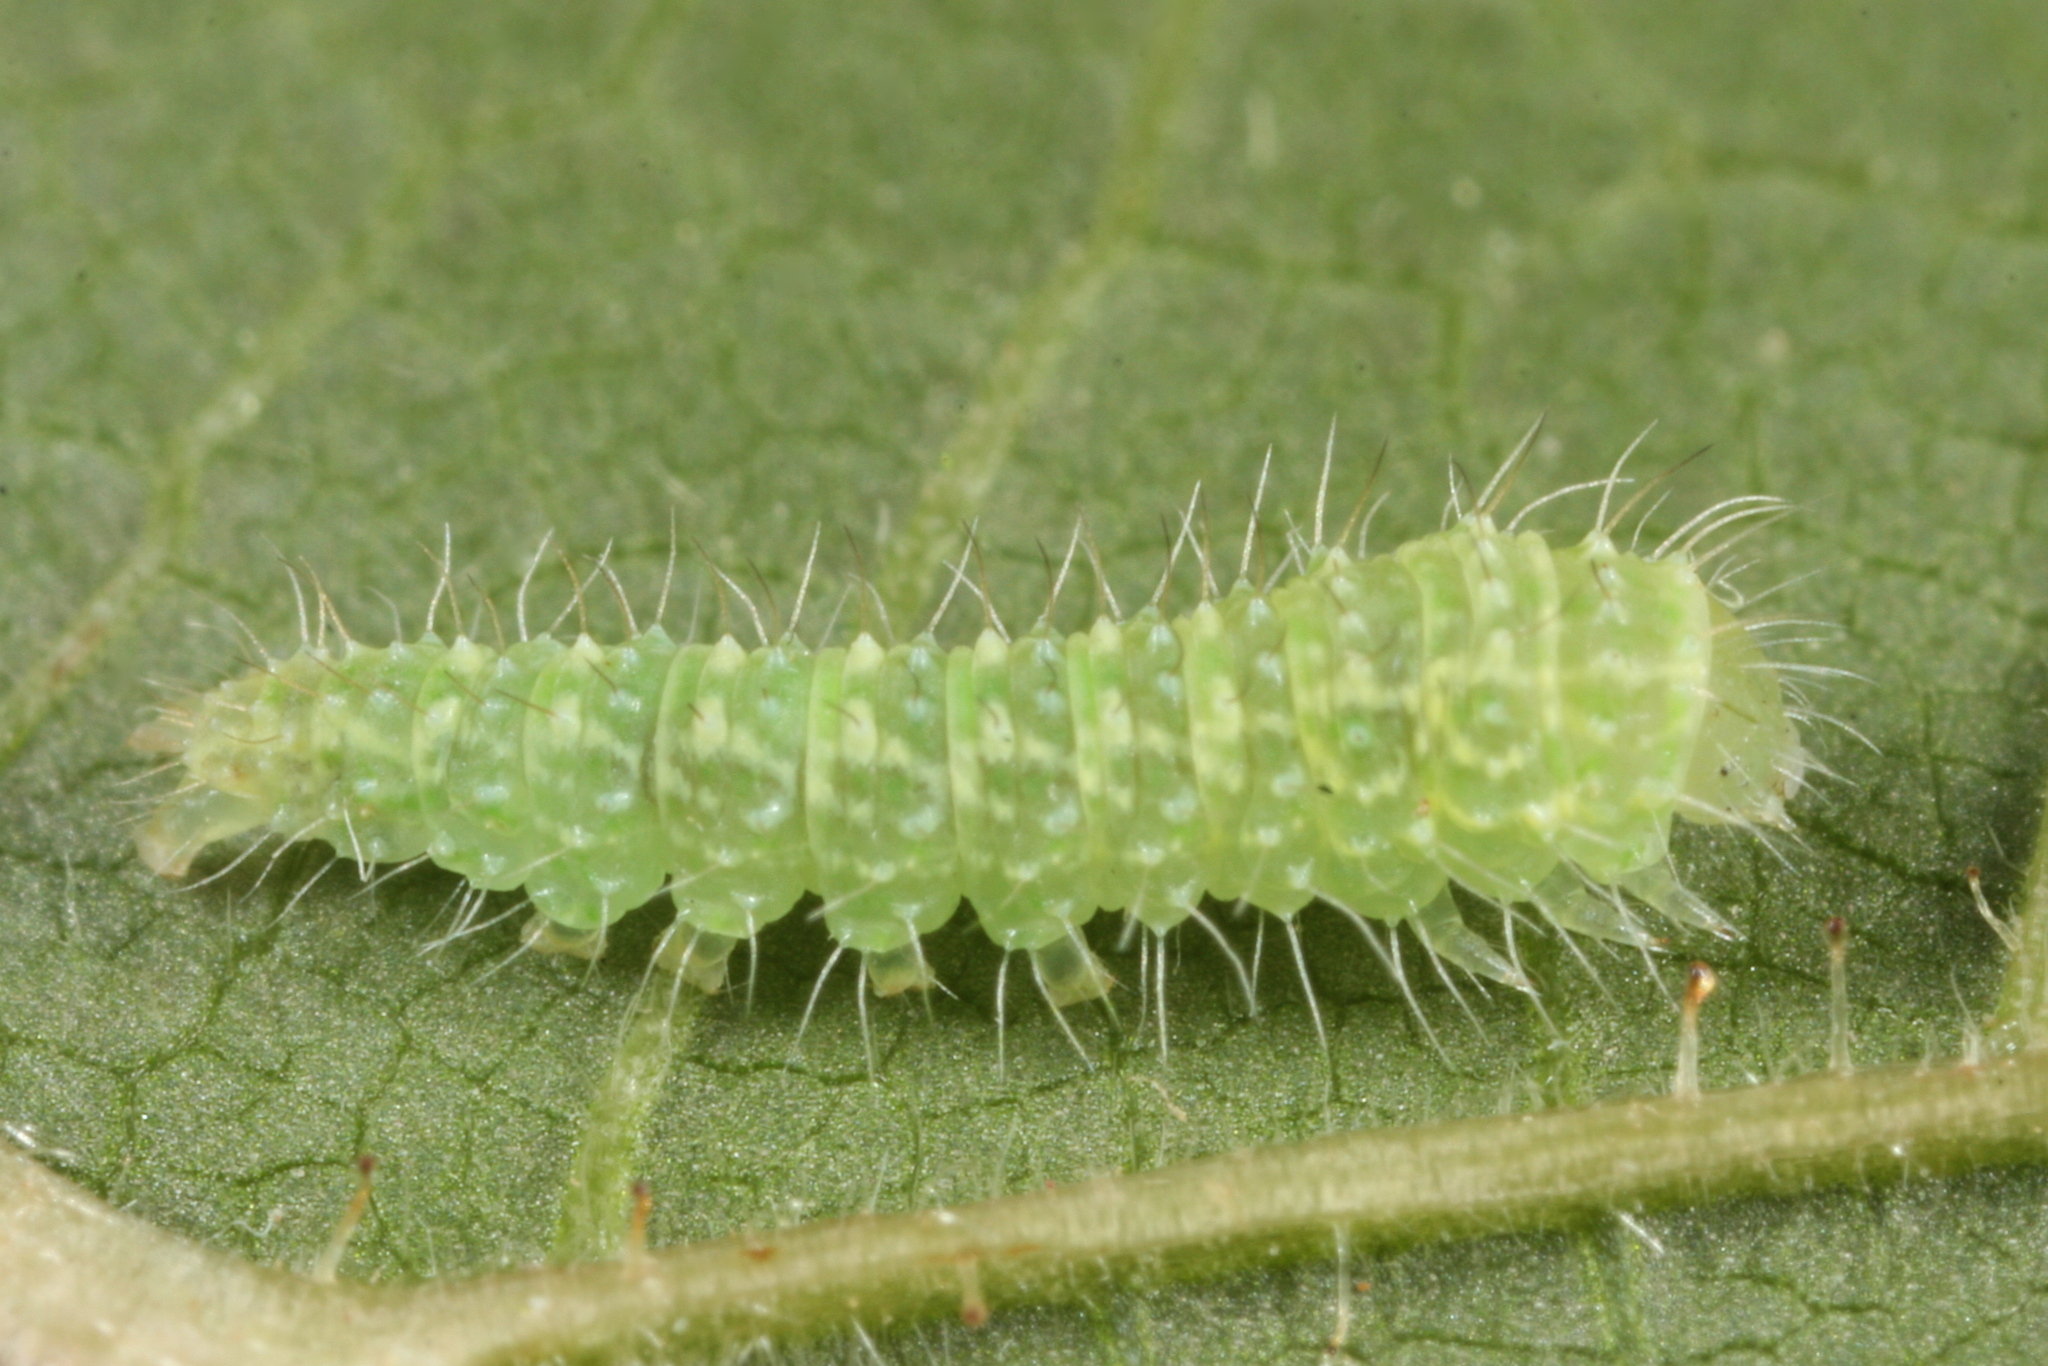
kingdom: Animalia
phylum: Arthropoda
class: Insecta
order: Lepidoptera
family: Nolidae
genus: Bena
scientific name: Bena bicolorana
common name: Scarce silver-lines
